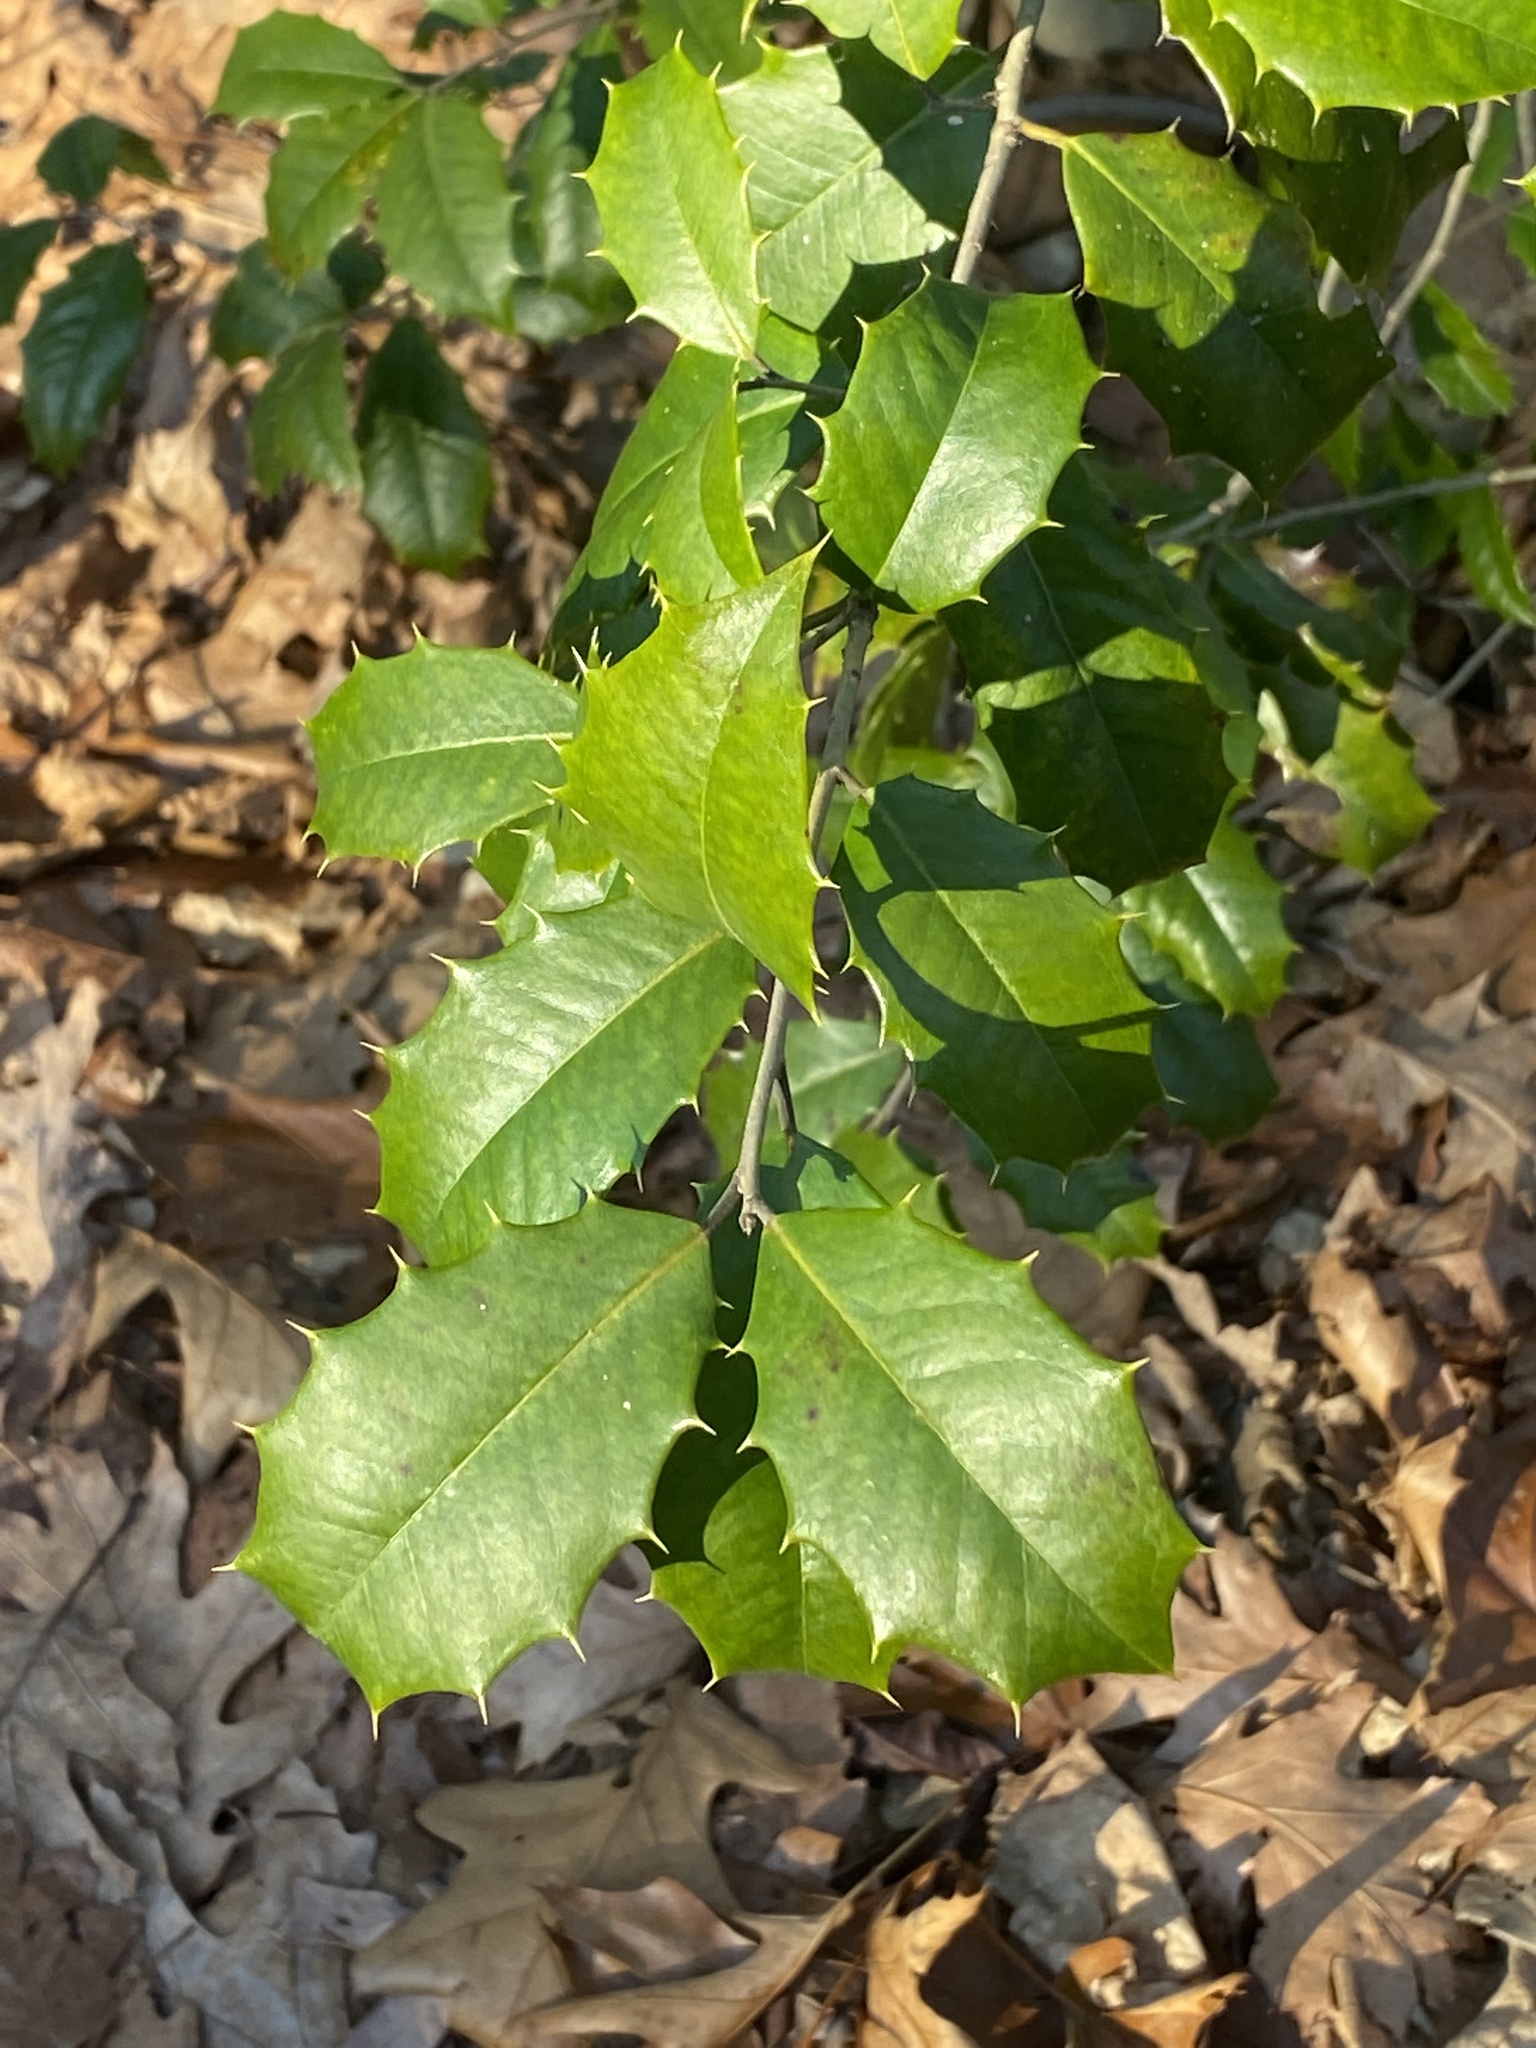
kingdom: Plantae
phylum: Tracheophyta
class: Magnoliopsida
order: Aquifoliales
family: Aquifoliaceae
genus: Ilex
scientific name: Ilex opaca
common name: American holly
